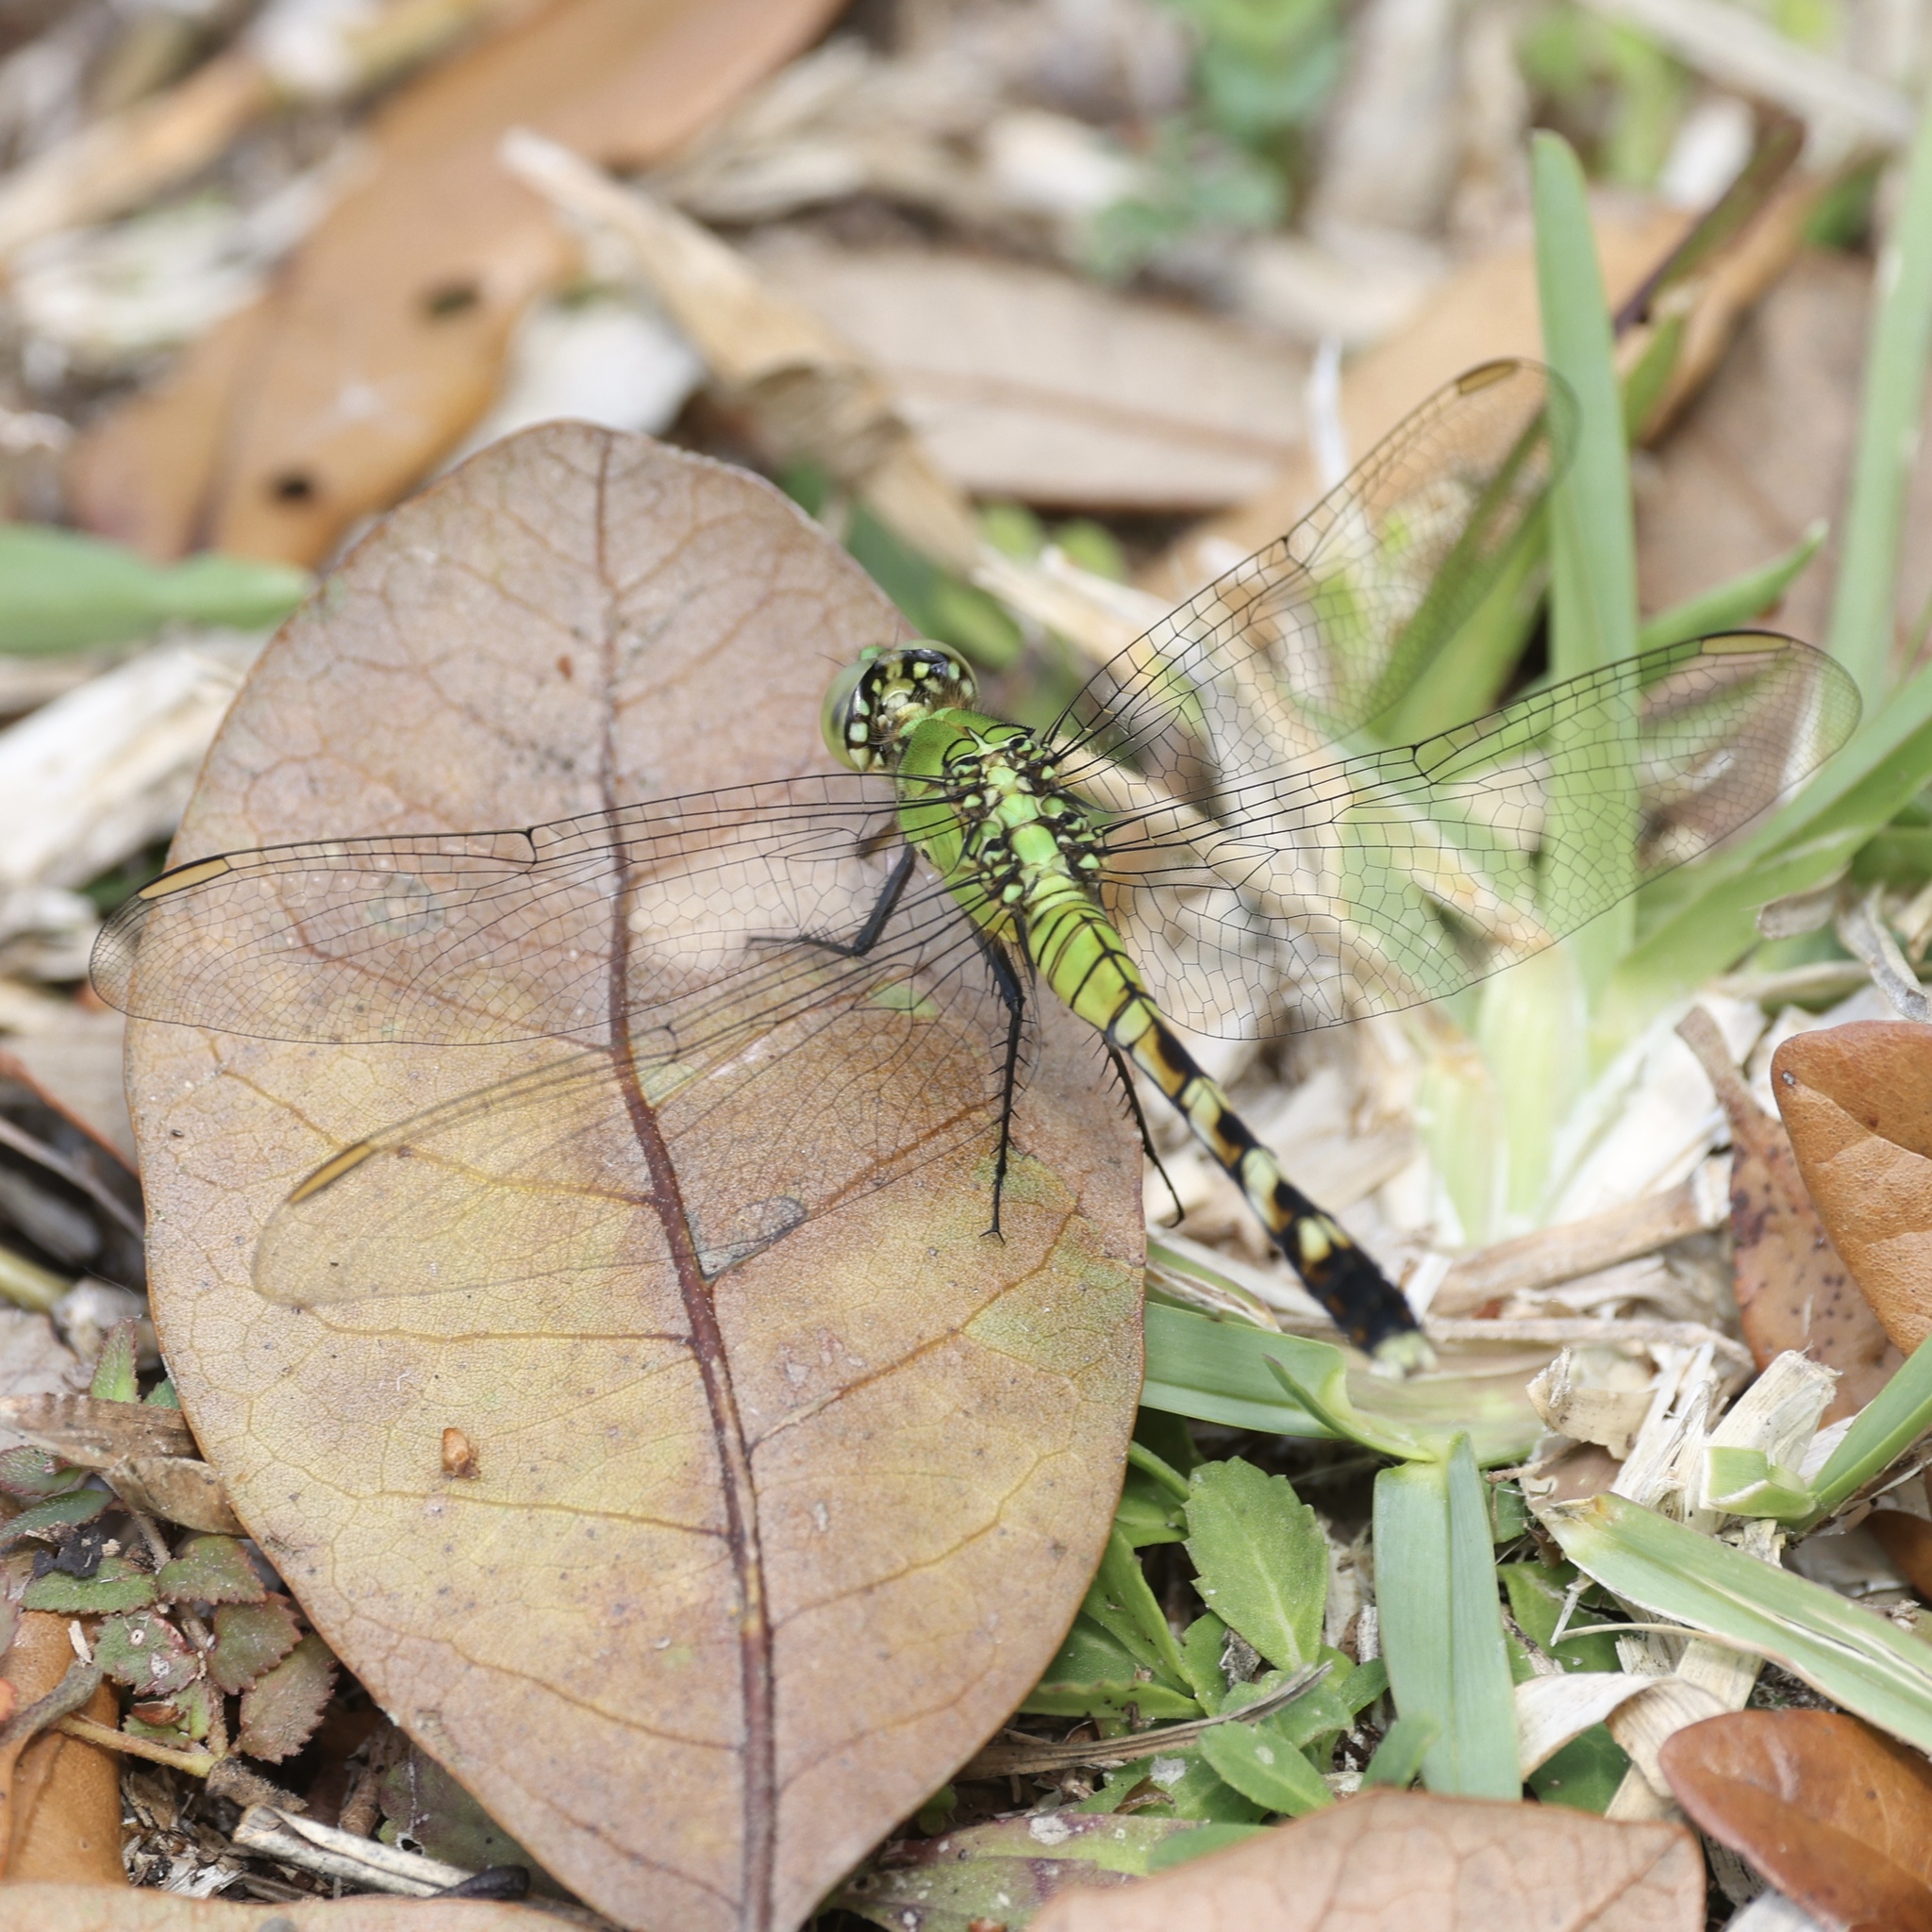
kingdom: Animalia
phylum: Arthropoda
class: Insecta
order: Odonata
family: Libellulidae
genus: Erythemis
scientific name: Erythemis simplicicollis
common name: Eastern pondhawk
